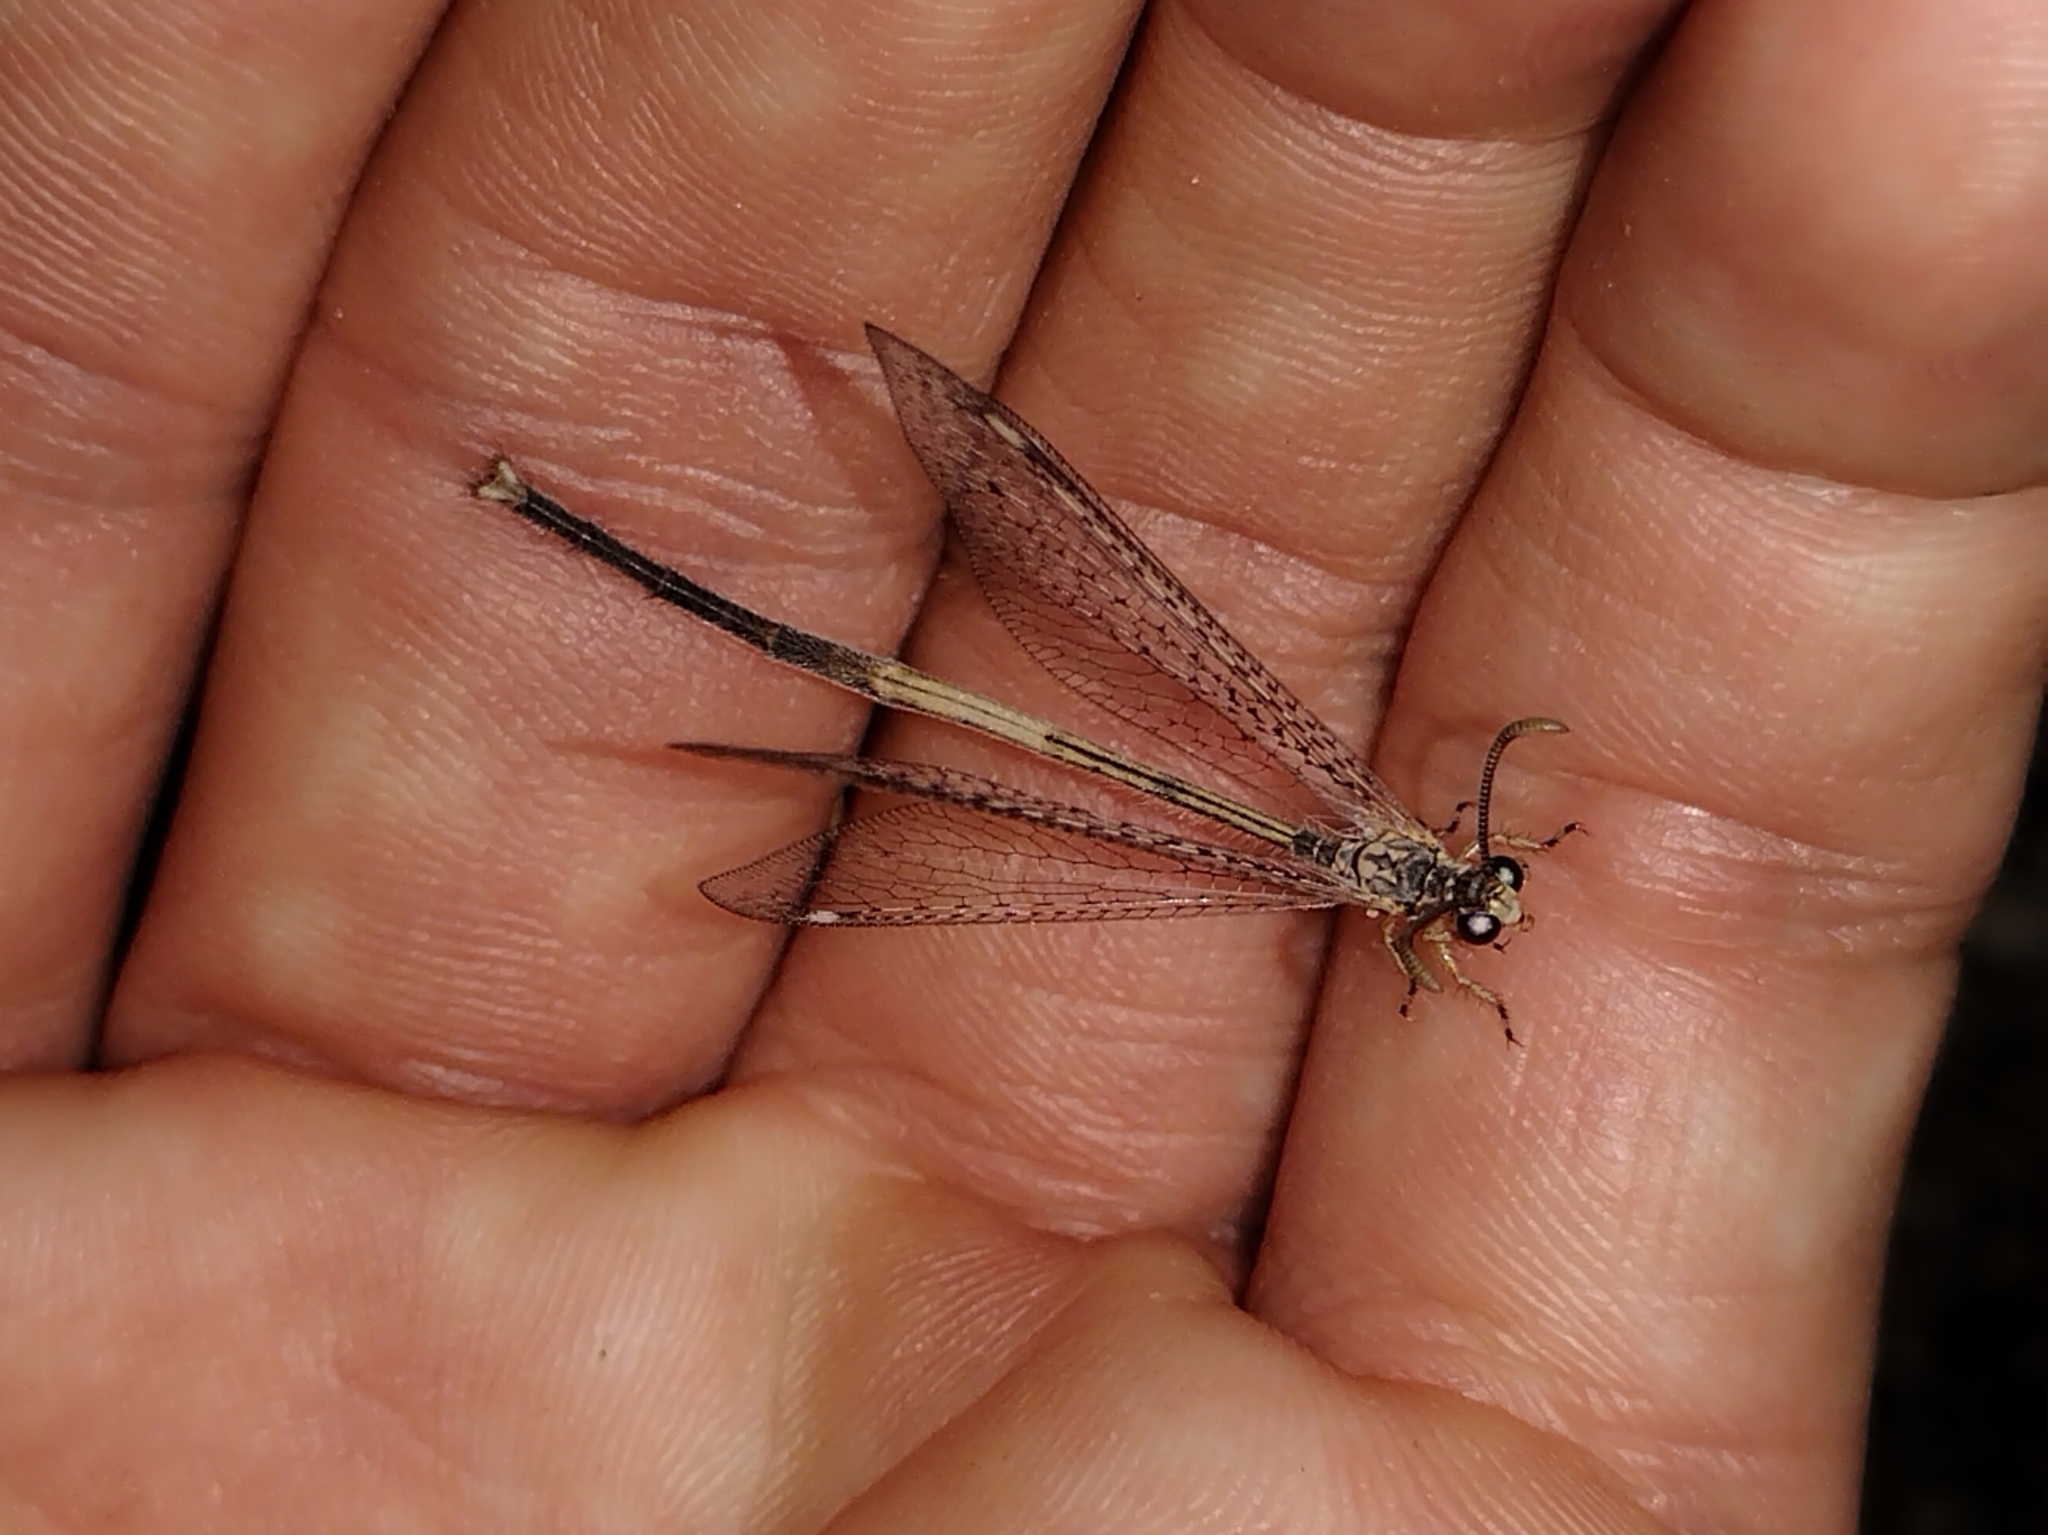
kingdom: Animalia
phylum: Arthropoda
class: Insecta
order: Neuroptera
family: Myrmeleontidae
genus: Clathroneuria
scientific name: Clathroneuria coquilletti
